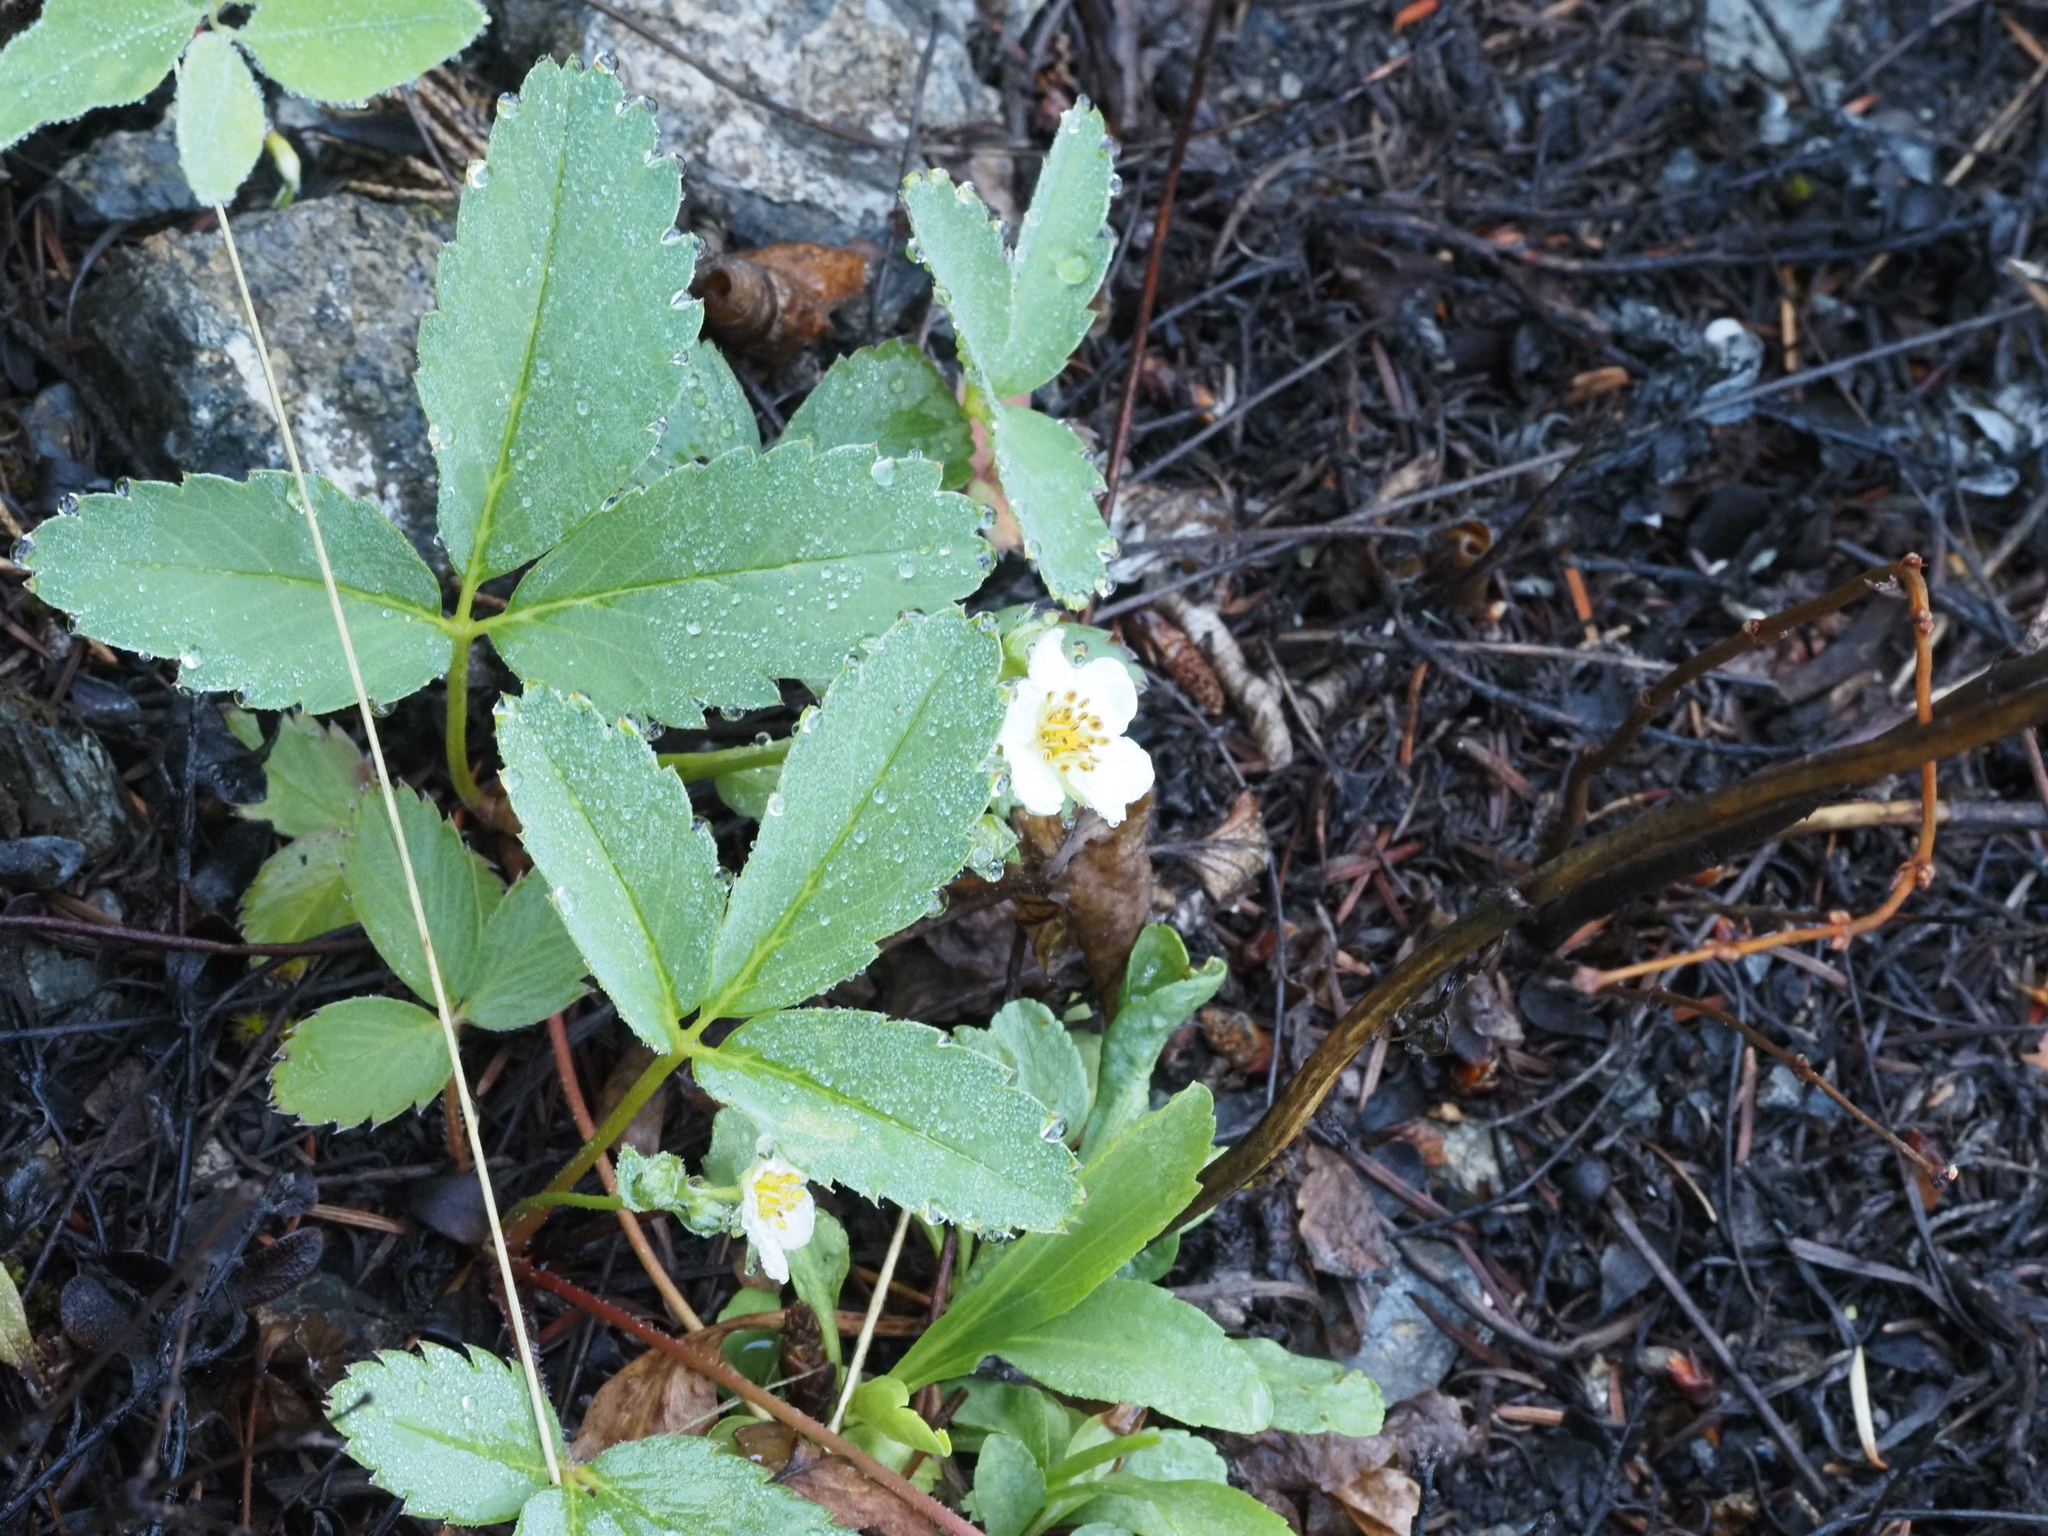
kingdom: Plantae
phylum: Tracheophyta
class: Magnoliopsida
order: Rosales
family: Rosaceae
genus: Fragaria
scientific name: Fragaria virginiana
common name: Thickleaved wild strawberry
